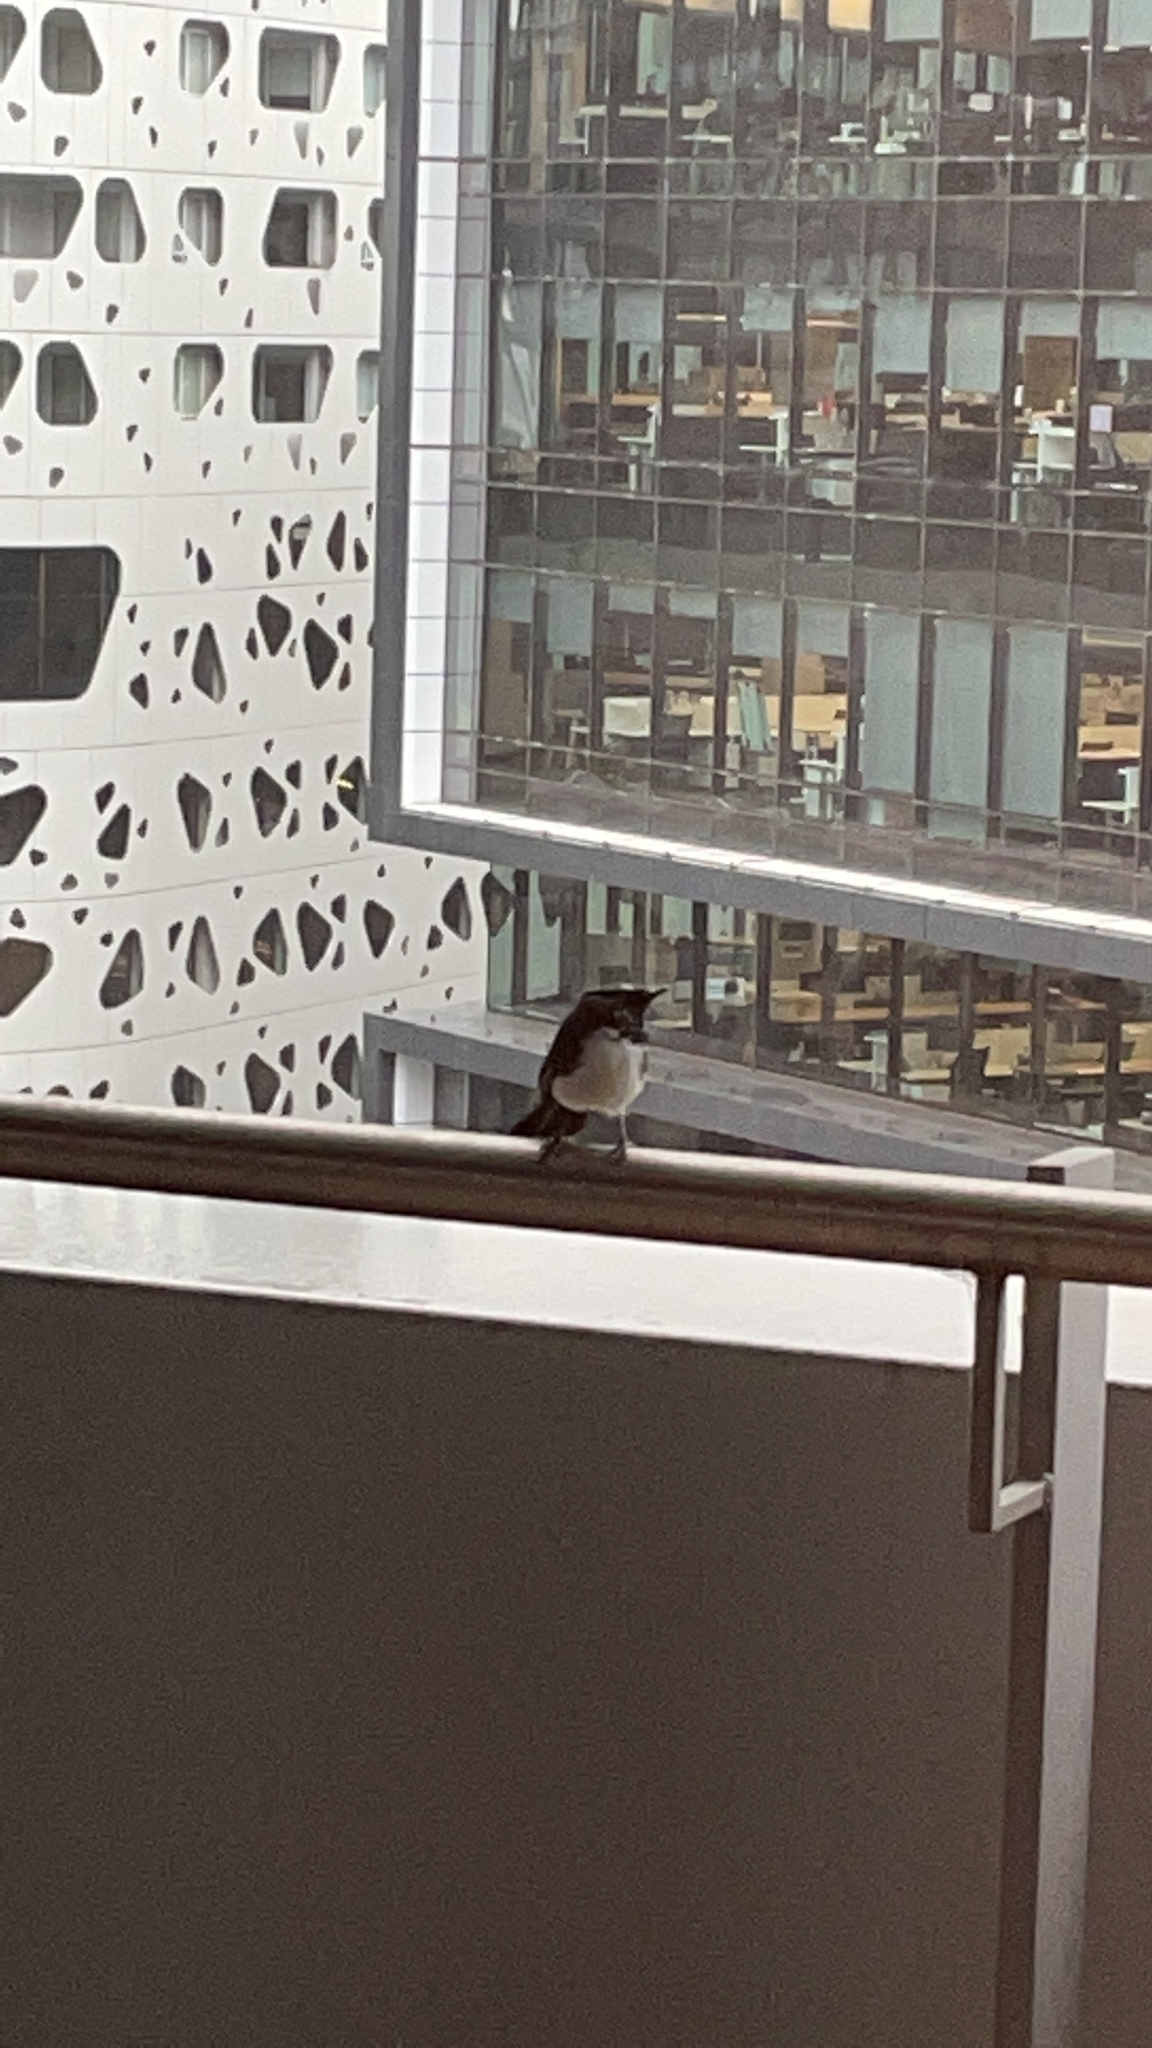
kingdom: Animalia
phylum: Chordata
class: Aves
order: Passeriformes
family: Rhipiduridae
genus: Rhipidura
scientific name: Rhipidura leucophrys
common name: Willie wagtail
